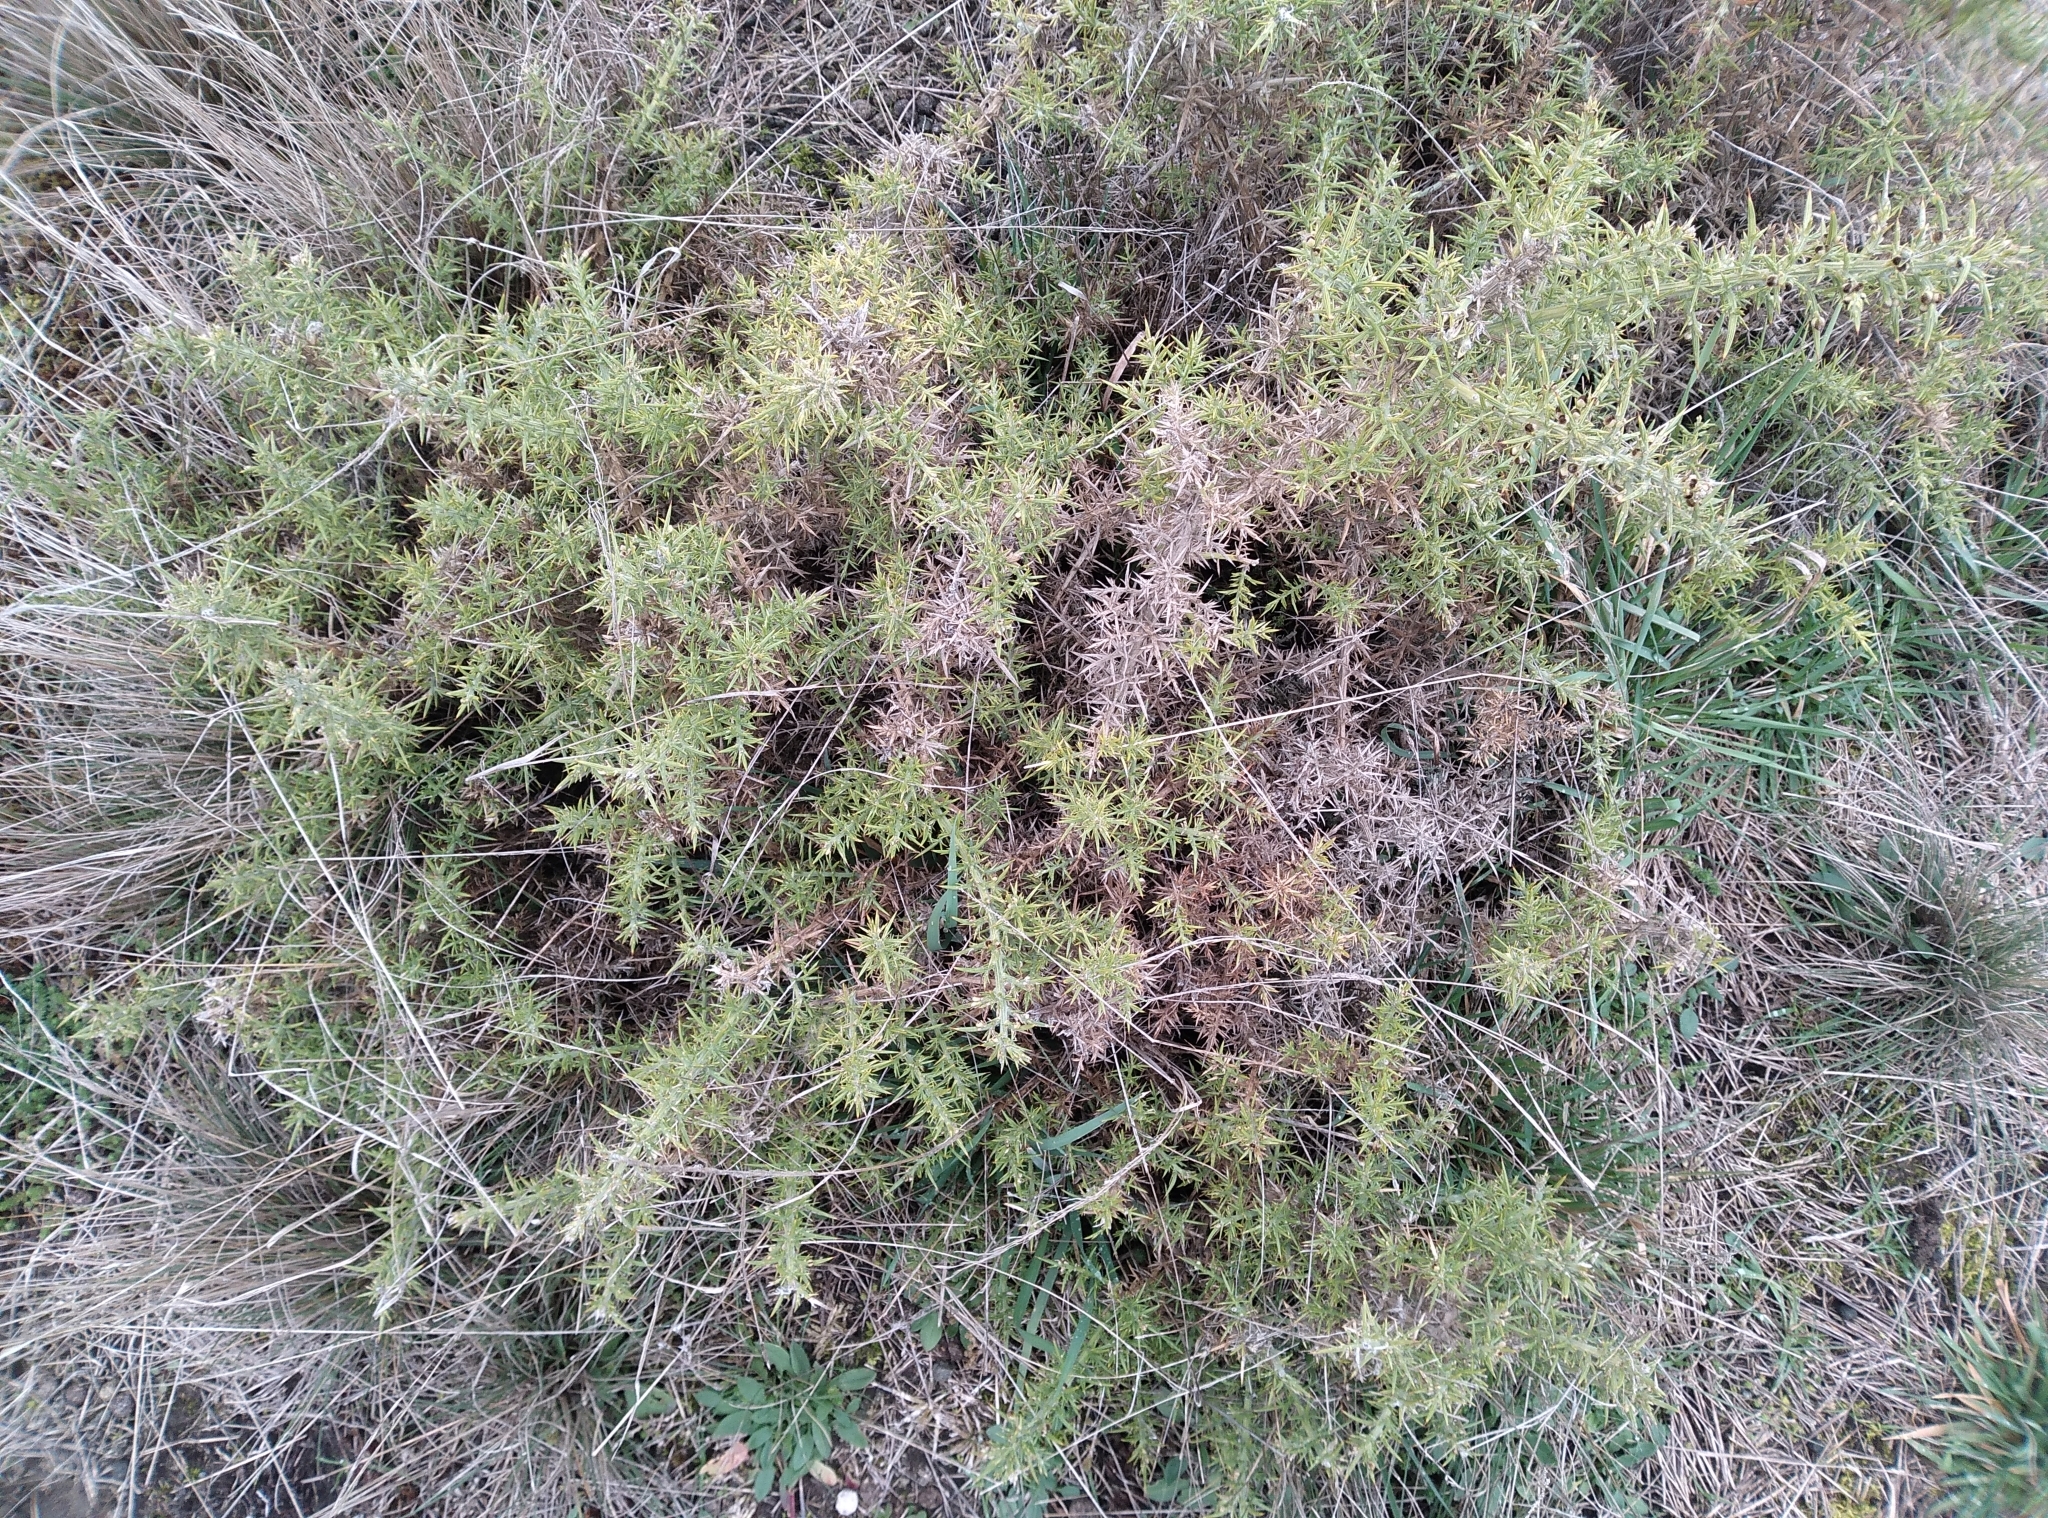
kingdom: Plantae
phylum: Tracheophyta
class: Magnoliopsida
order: Fabales
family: Fabaceae
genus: Ulex
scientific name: Ulex europaeus
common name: Common gorse
